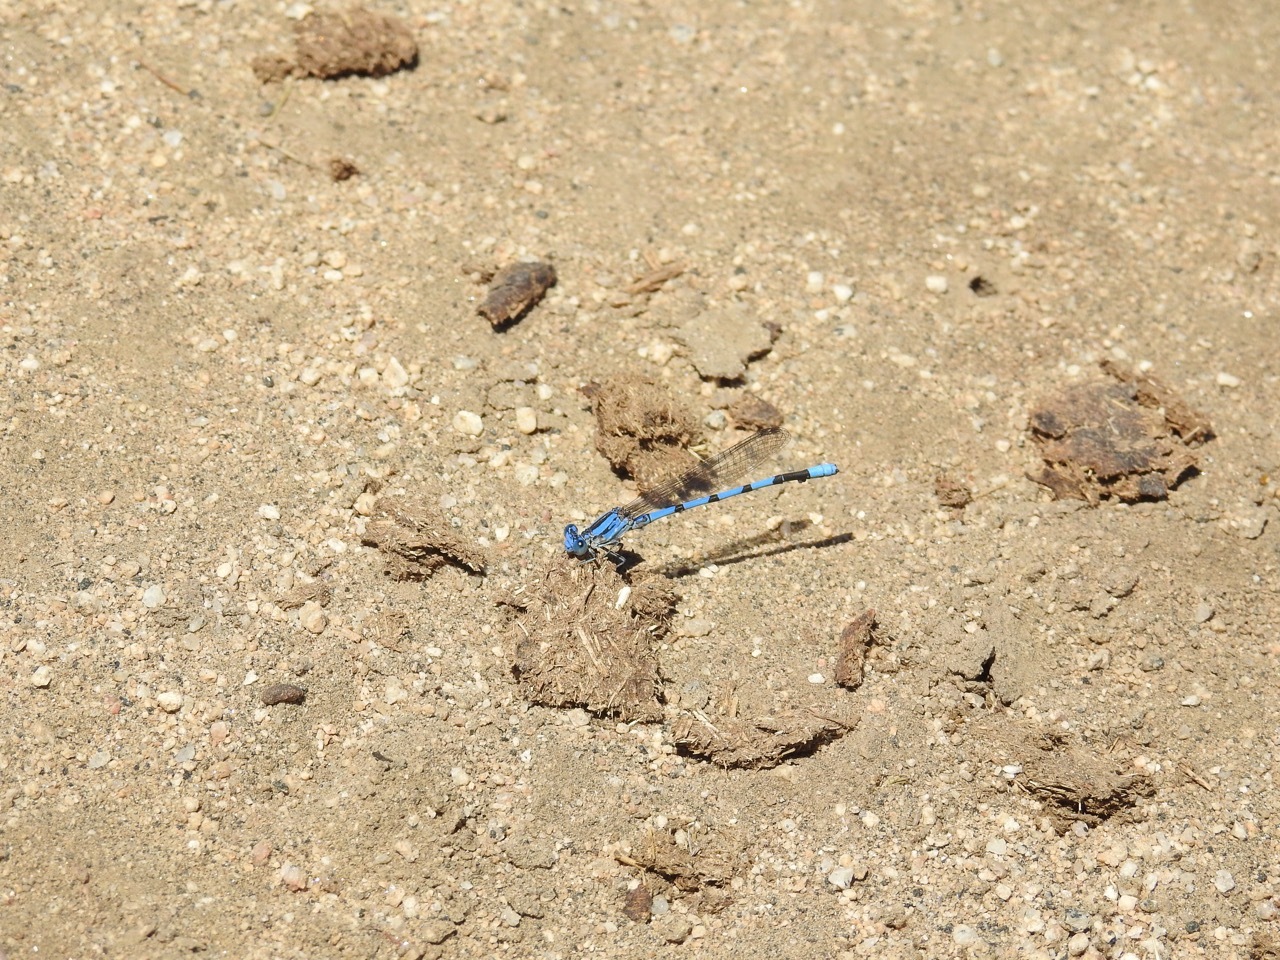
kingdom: Animalia
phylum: Arthropoda
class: Insecta
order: Odonata
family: Coenagrionidae
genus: Argia
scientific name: Argia agrioides
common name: California dancer
